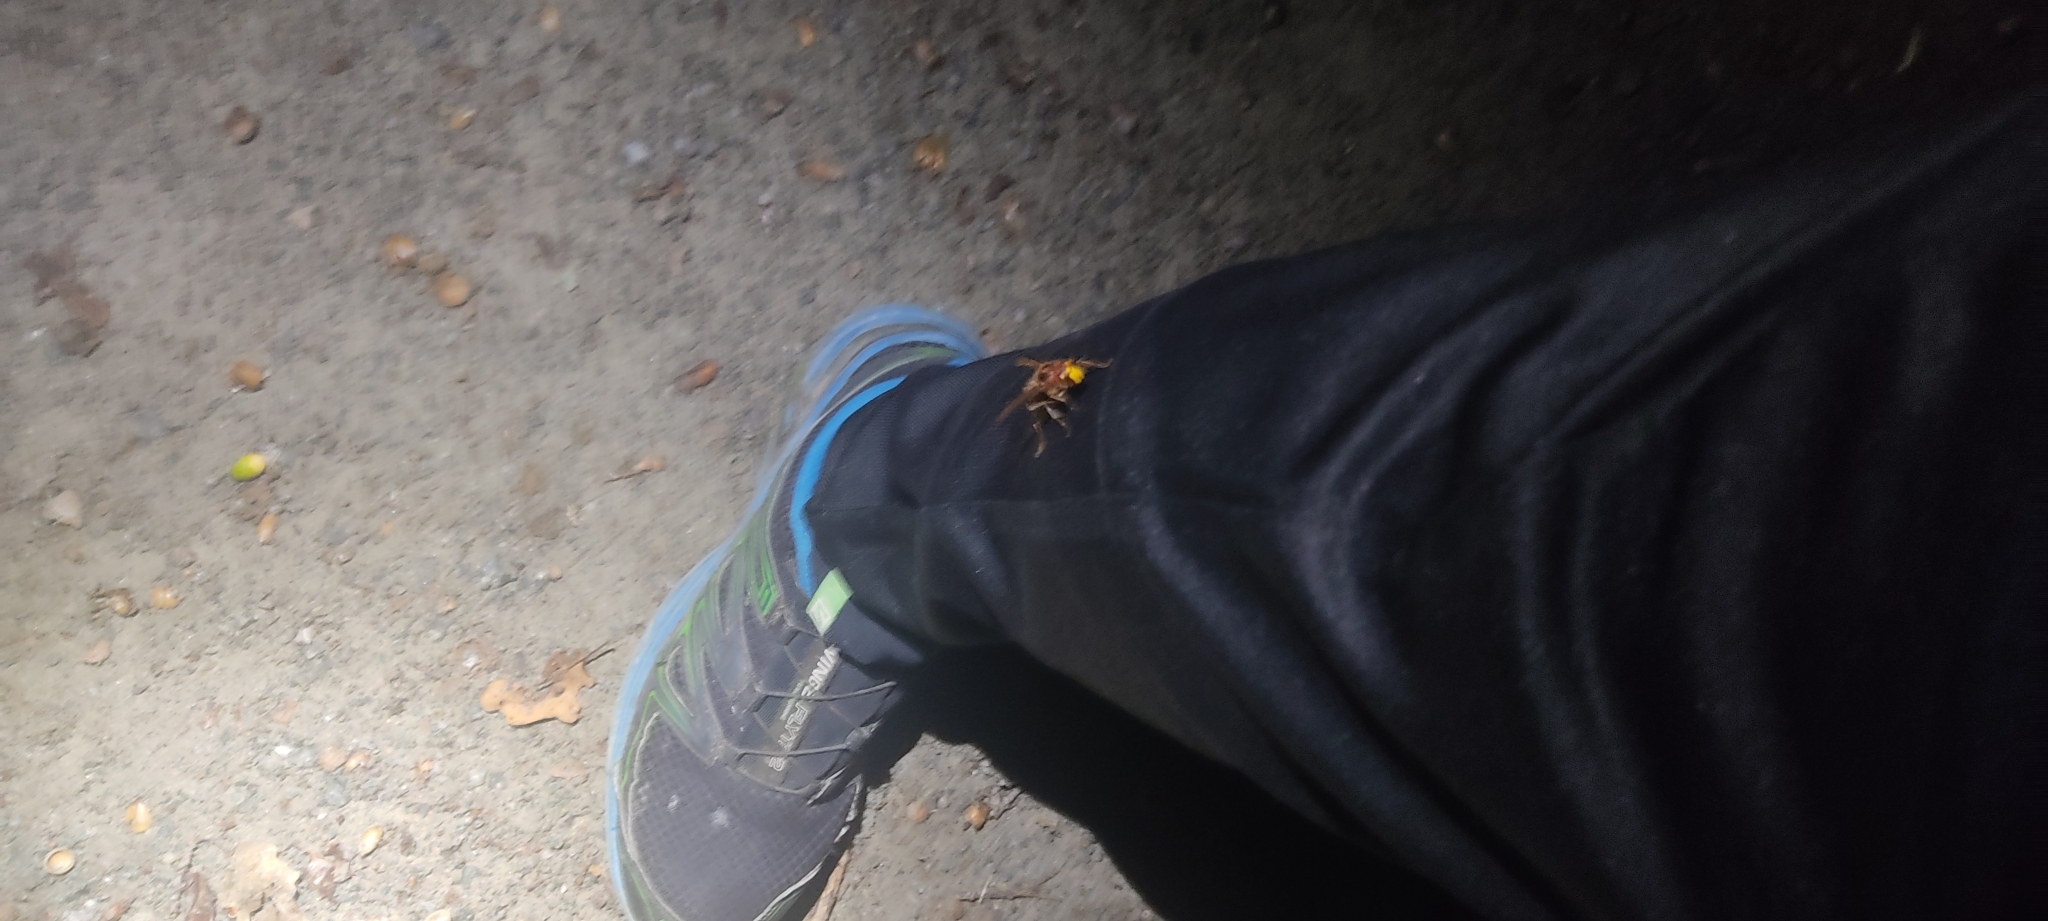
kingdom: Animalia
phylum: Arthropoda
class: Insecta
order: Hymenoptera
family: Vespidae
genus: Vespa
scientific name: Vespa crabro
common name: Hornet
